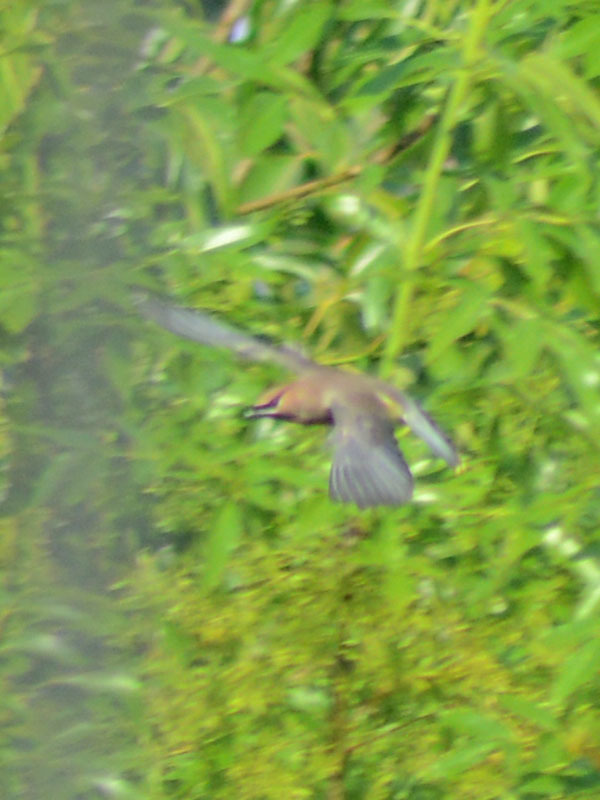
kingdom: Animalia
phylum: Chordata
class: Aves
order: Passeriformes
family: Bombycillidae
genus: Bombycilla
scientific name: Bombycilla cedrorum
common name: Cedar waxwing
